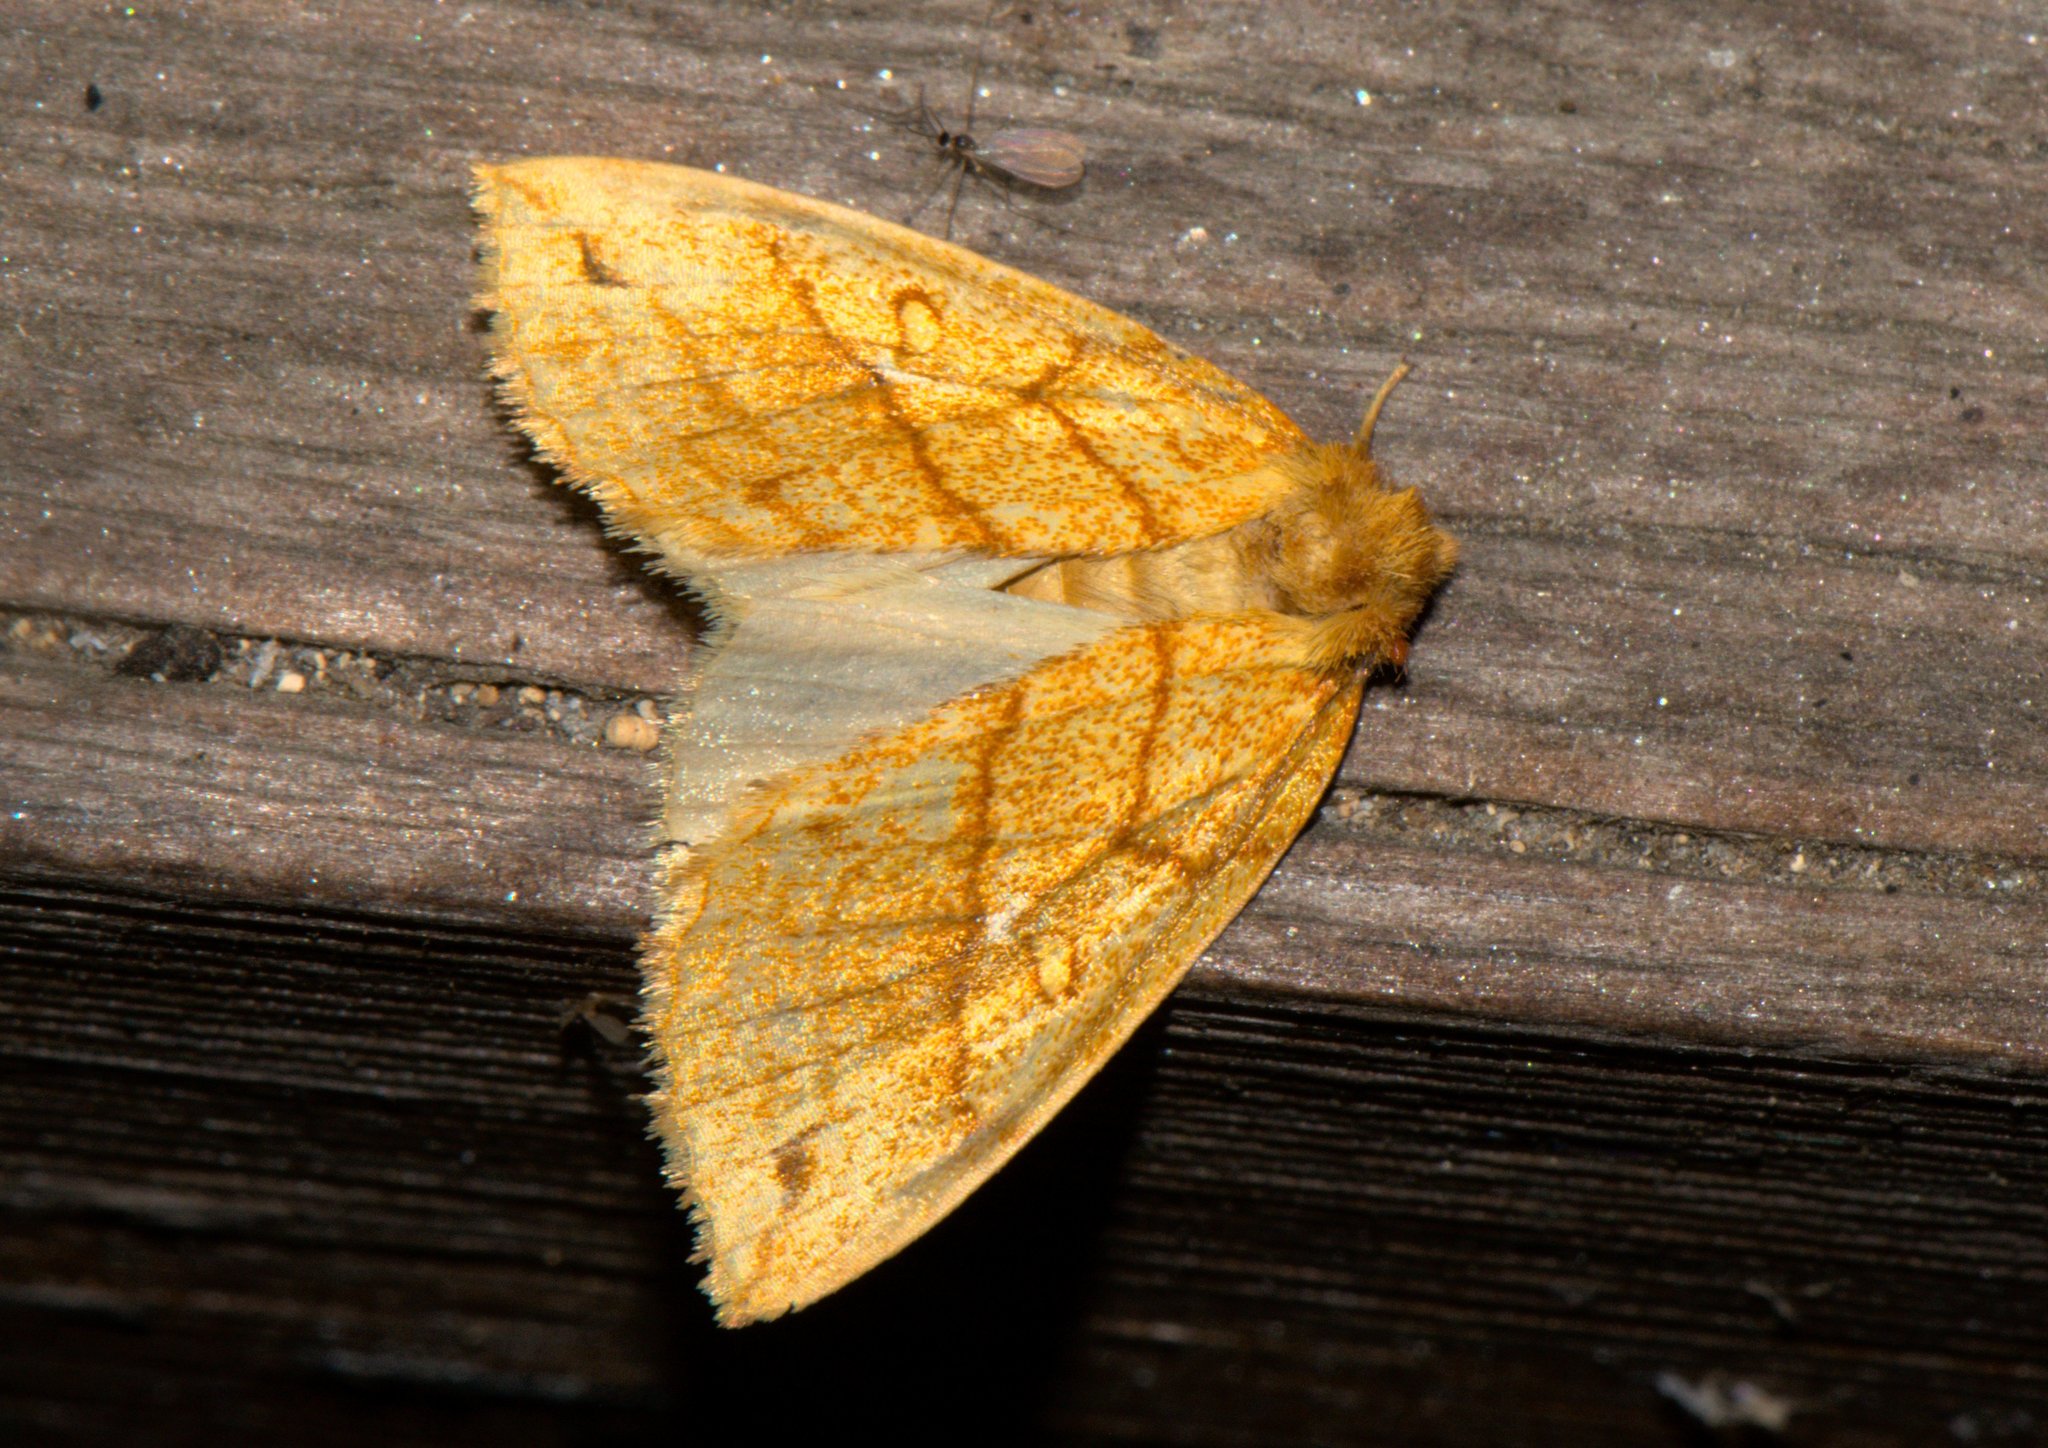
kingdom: Animalia
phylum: Arthropoda
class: Insecta
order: Lepidoptera
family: Noctuidae
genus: Xanthia
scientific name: Xanthia rectilineata
